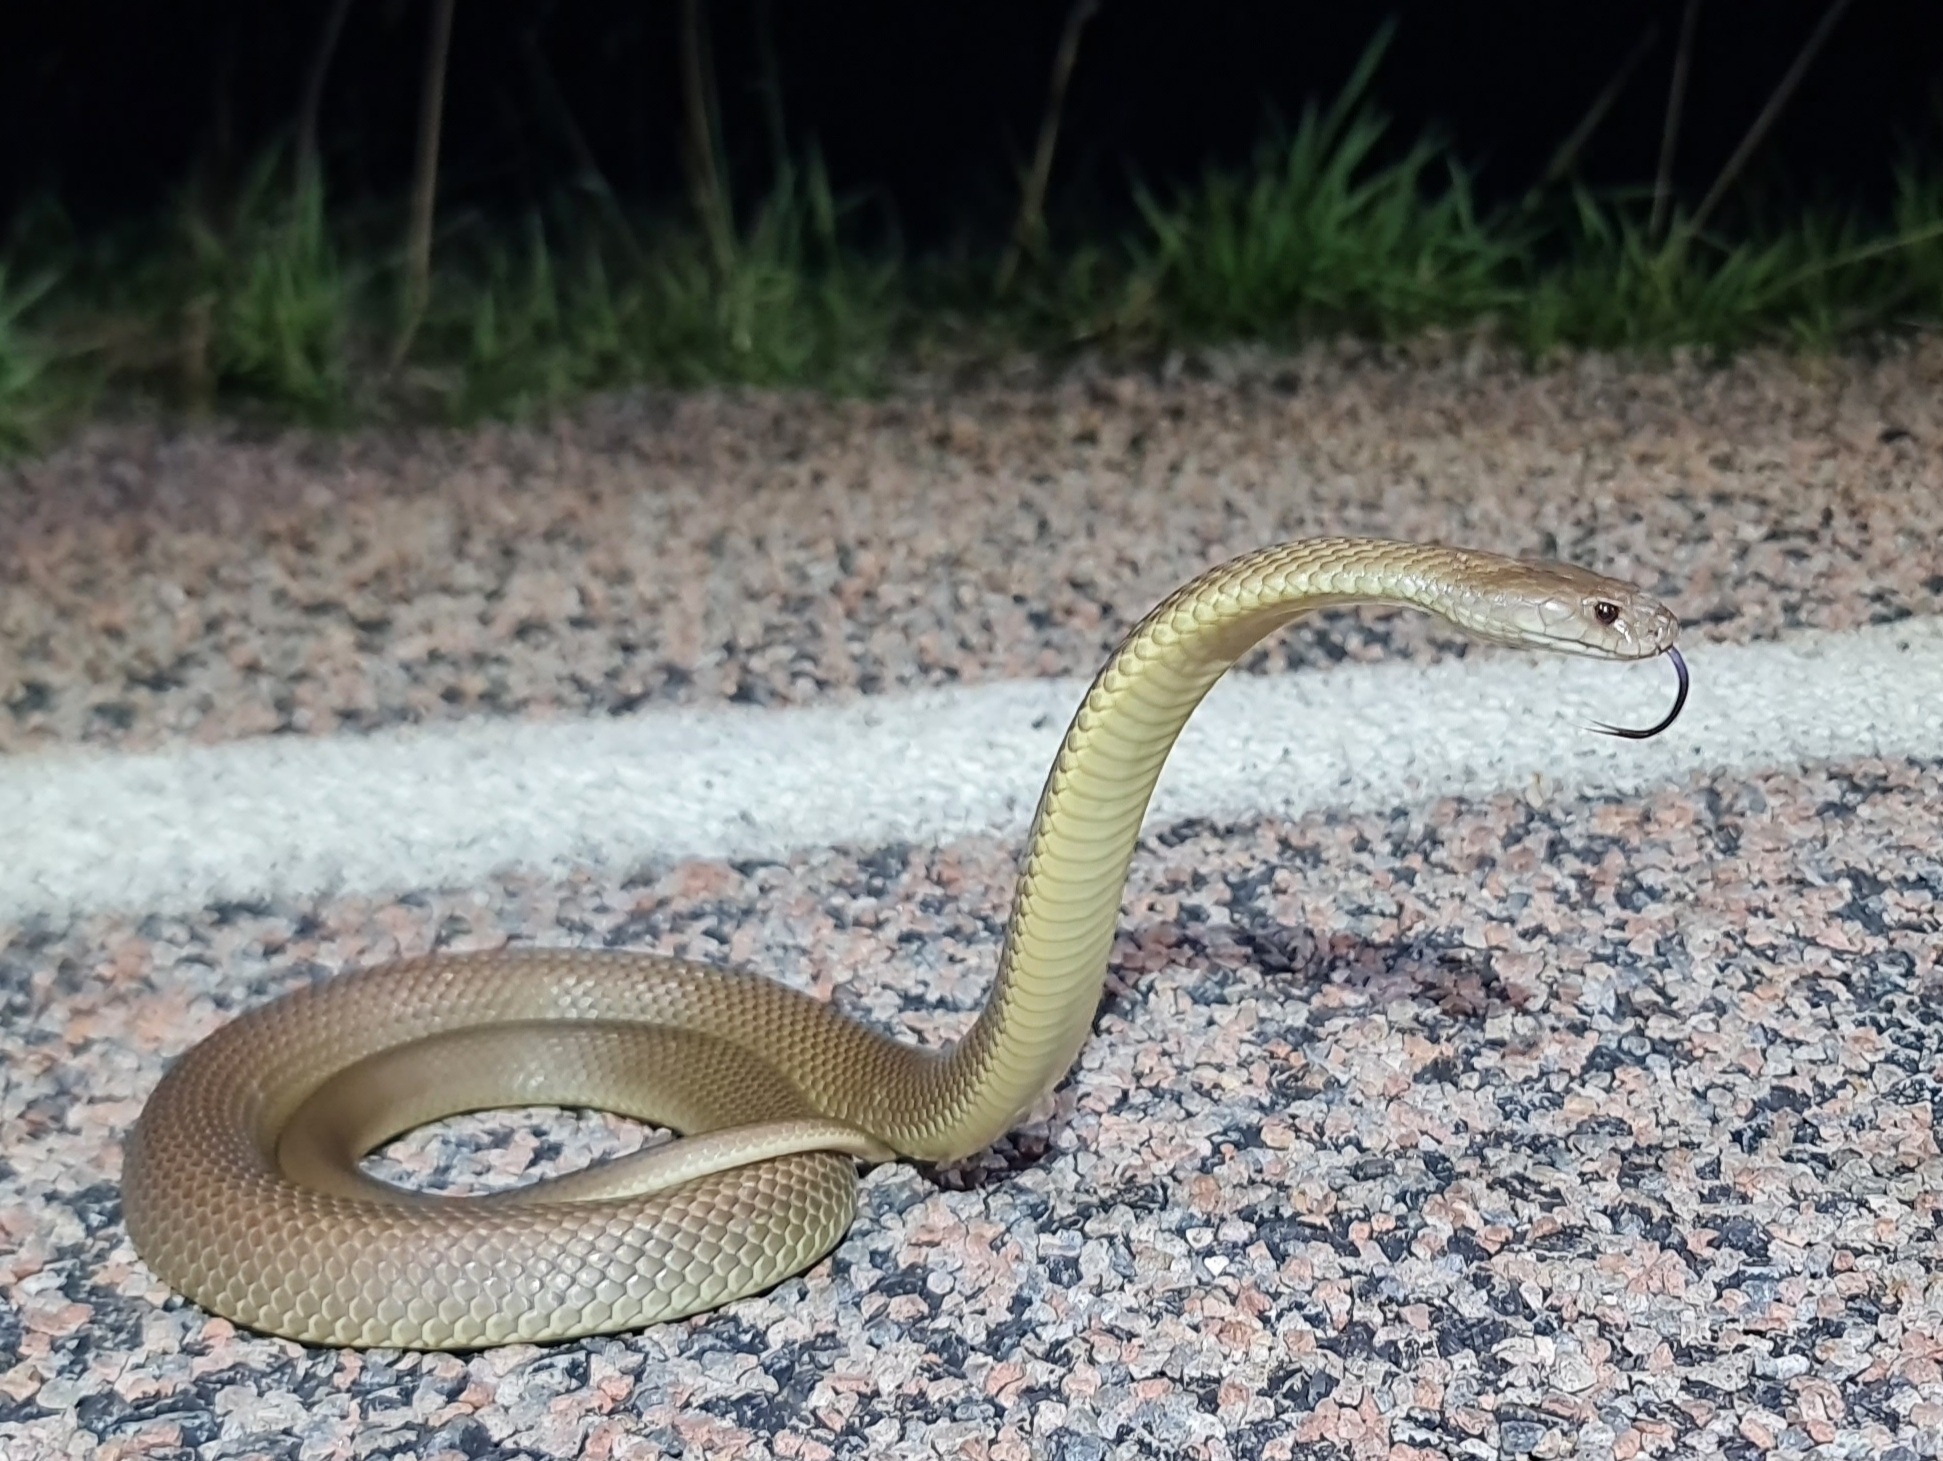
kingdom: Animalia
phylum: Chordata
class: Squamata
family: Elapidae
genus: Pseudechis
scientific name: Pseudechis australis
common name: King brown snake
